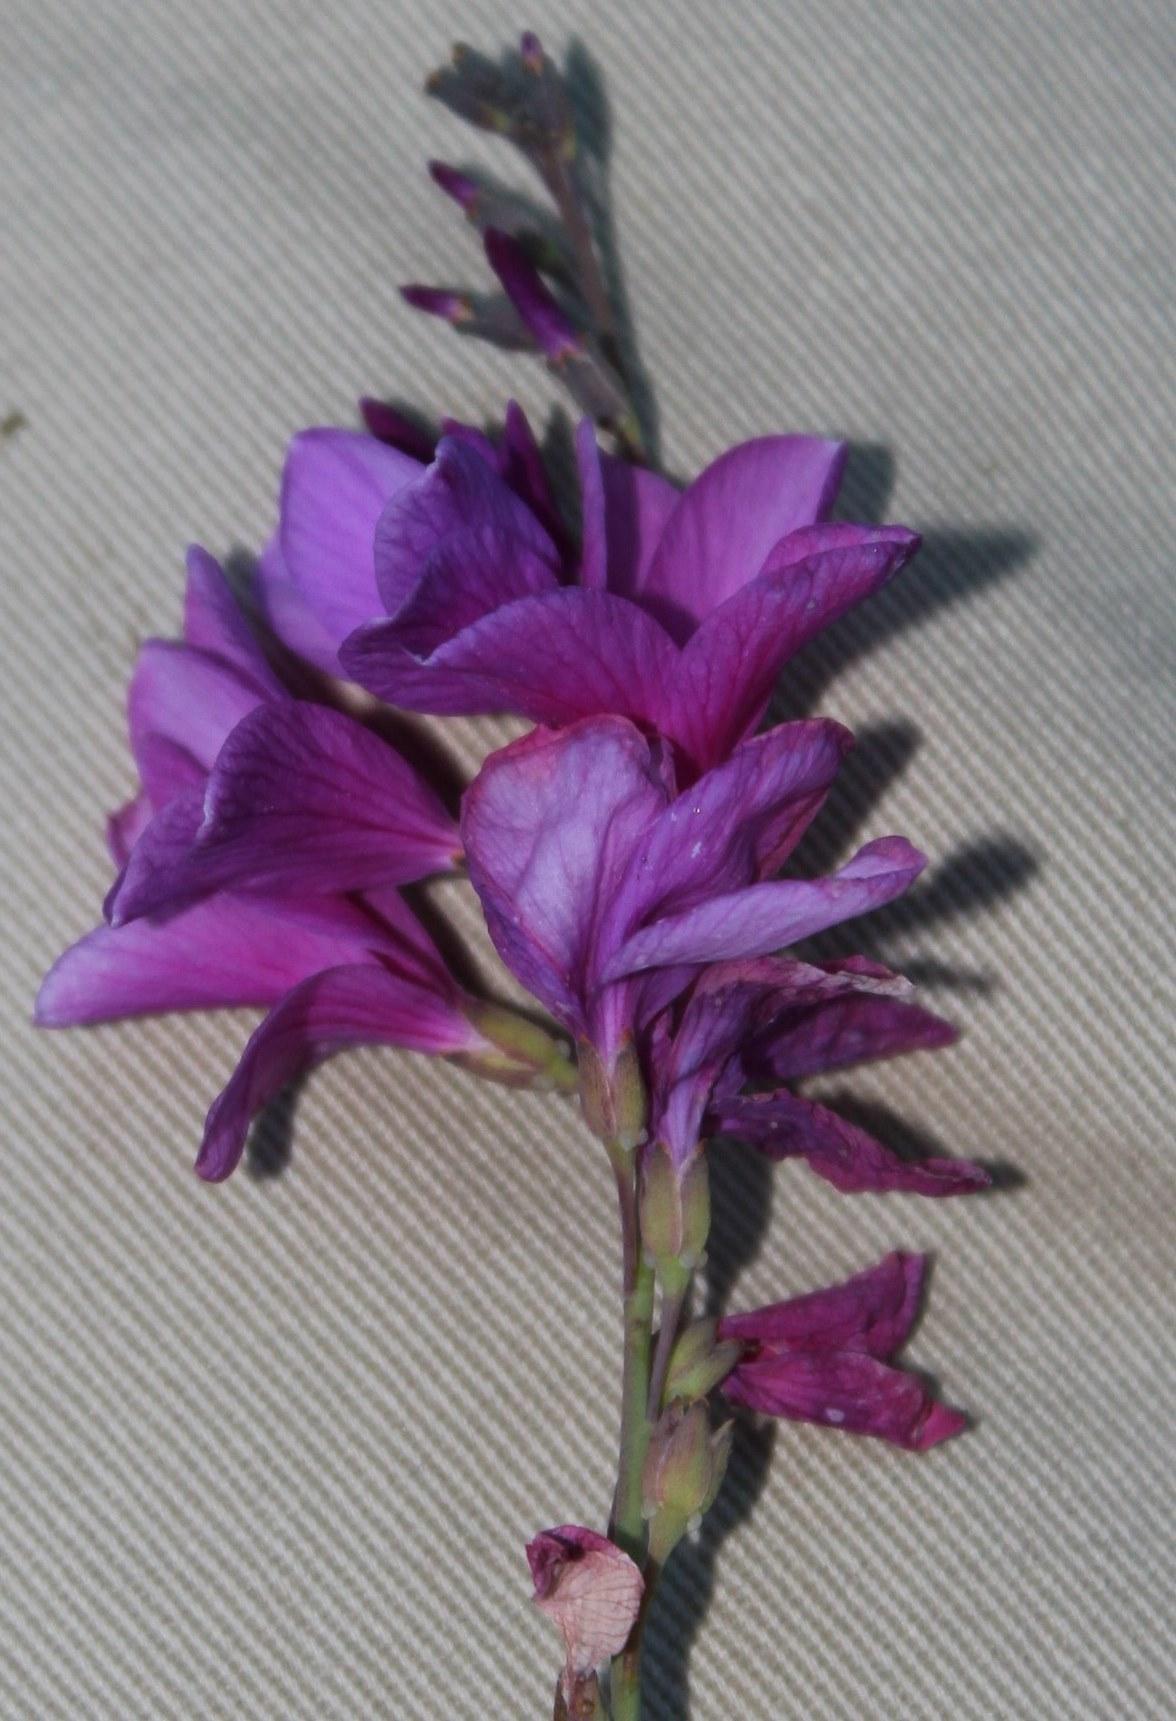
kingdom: Plantae
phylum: Tracheophyta
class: Magnoliopsida
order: Brassicales
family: Brassicaceae
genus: Heliophila
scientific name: Heliophila juncea
